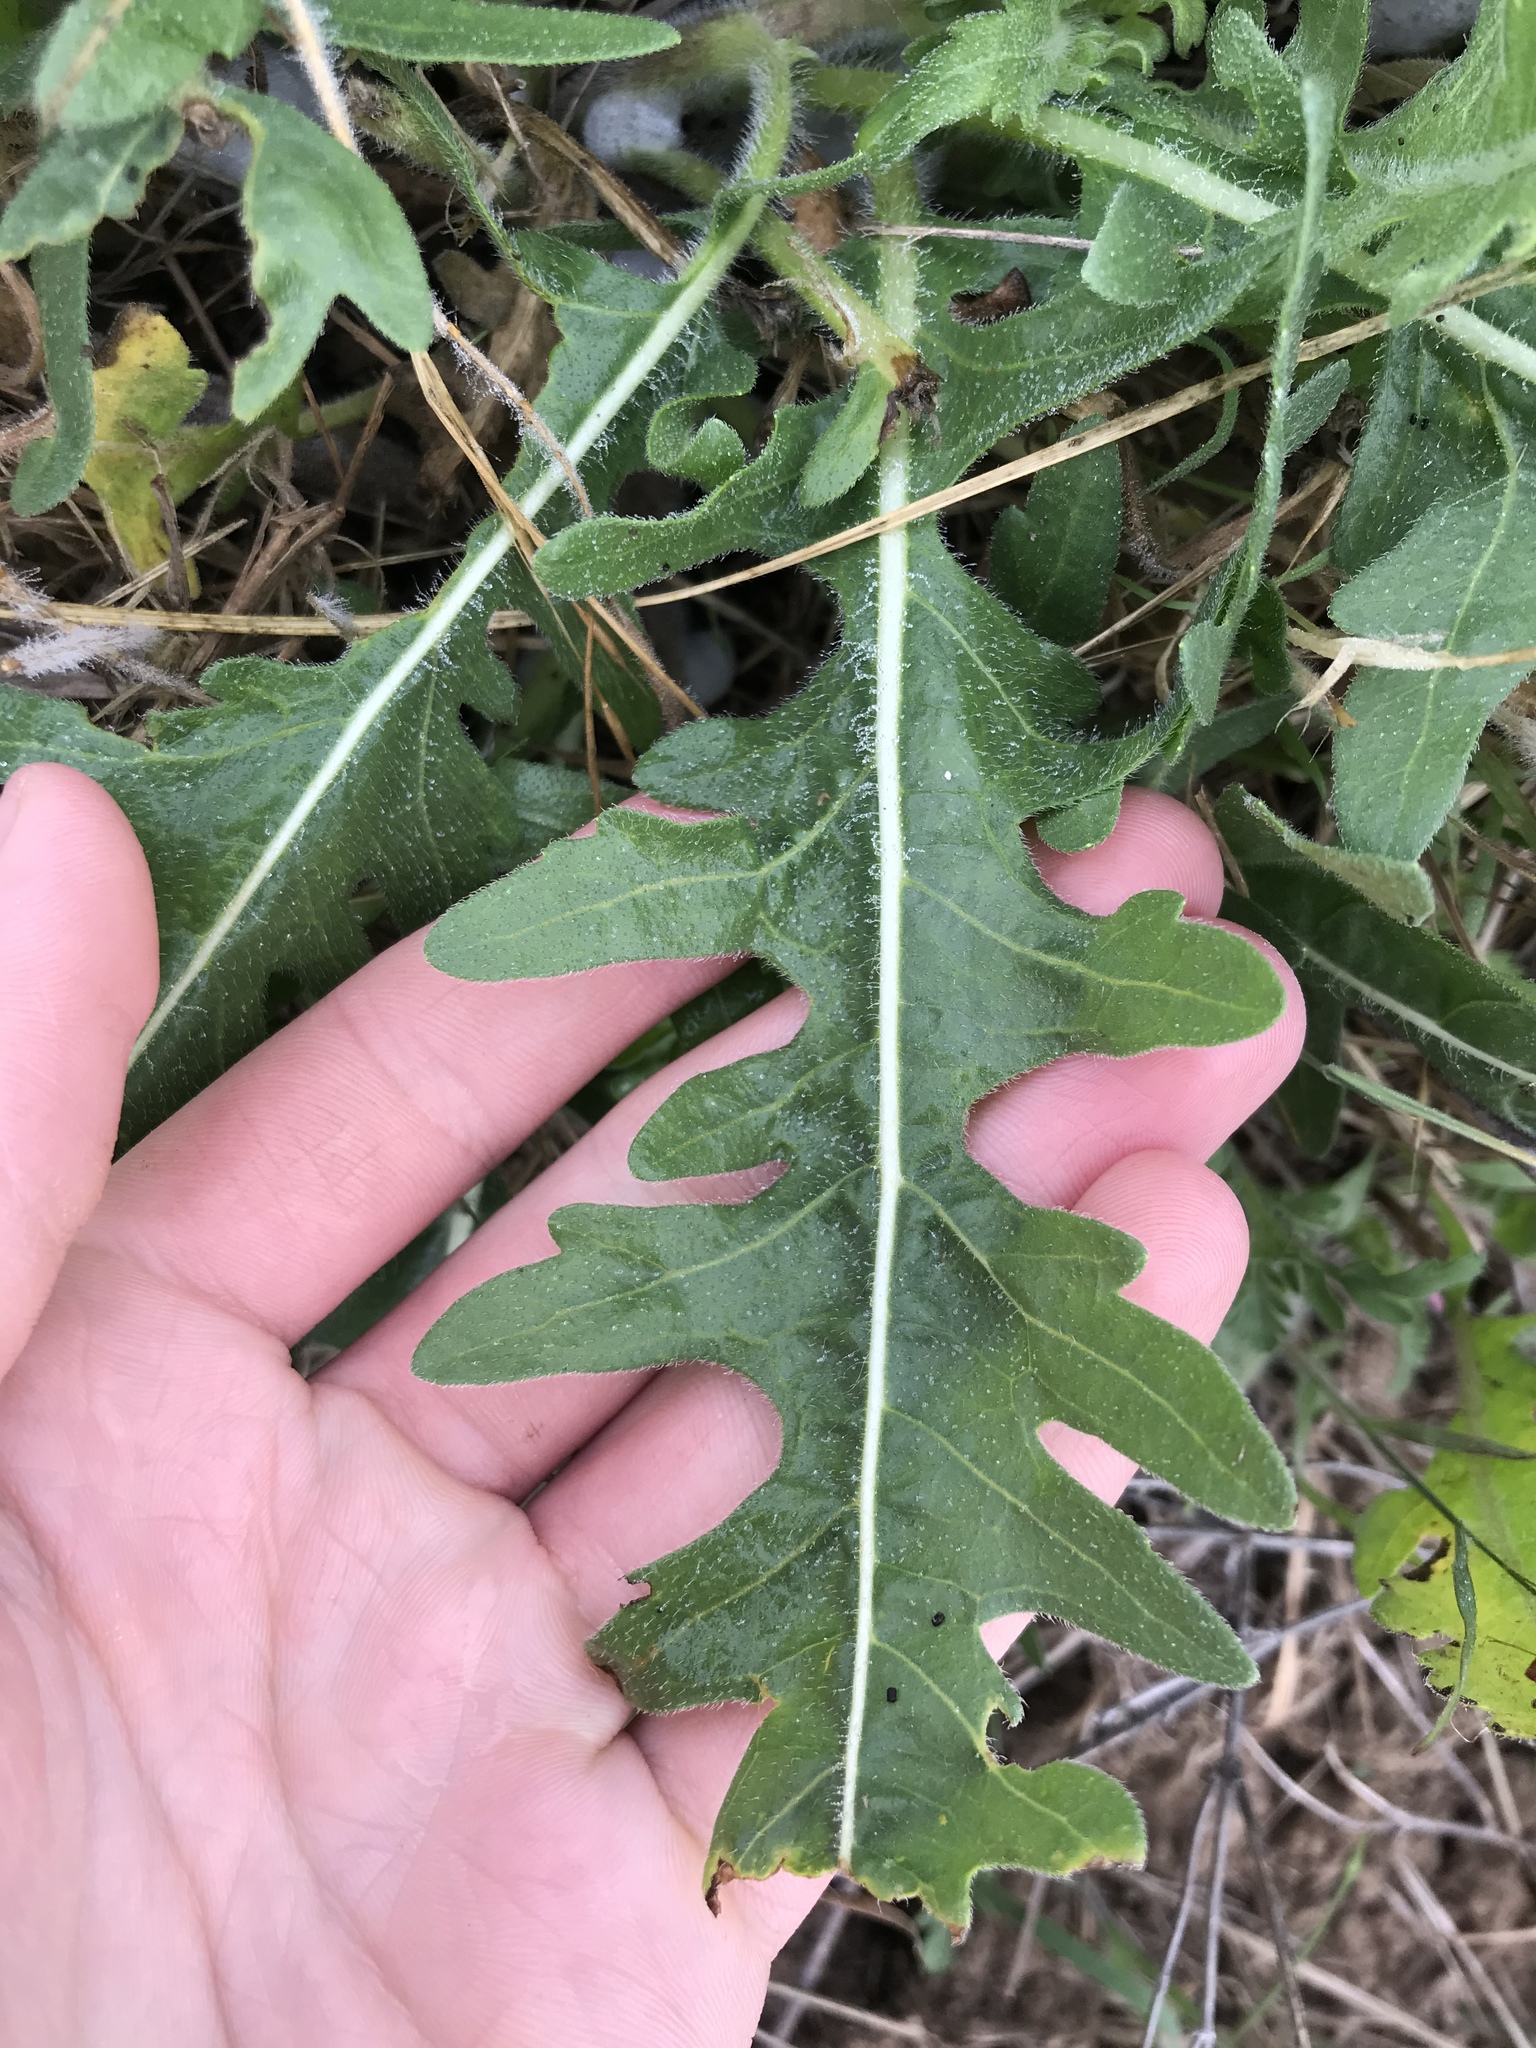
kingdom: Plantae
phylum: Tracheophyta
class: Magnoliopsida
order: Asterales
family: Asteraceae
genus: Engelmannia
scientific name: Engelmannia peristenia
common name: Engelmann's daisy
